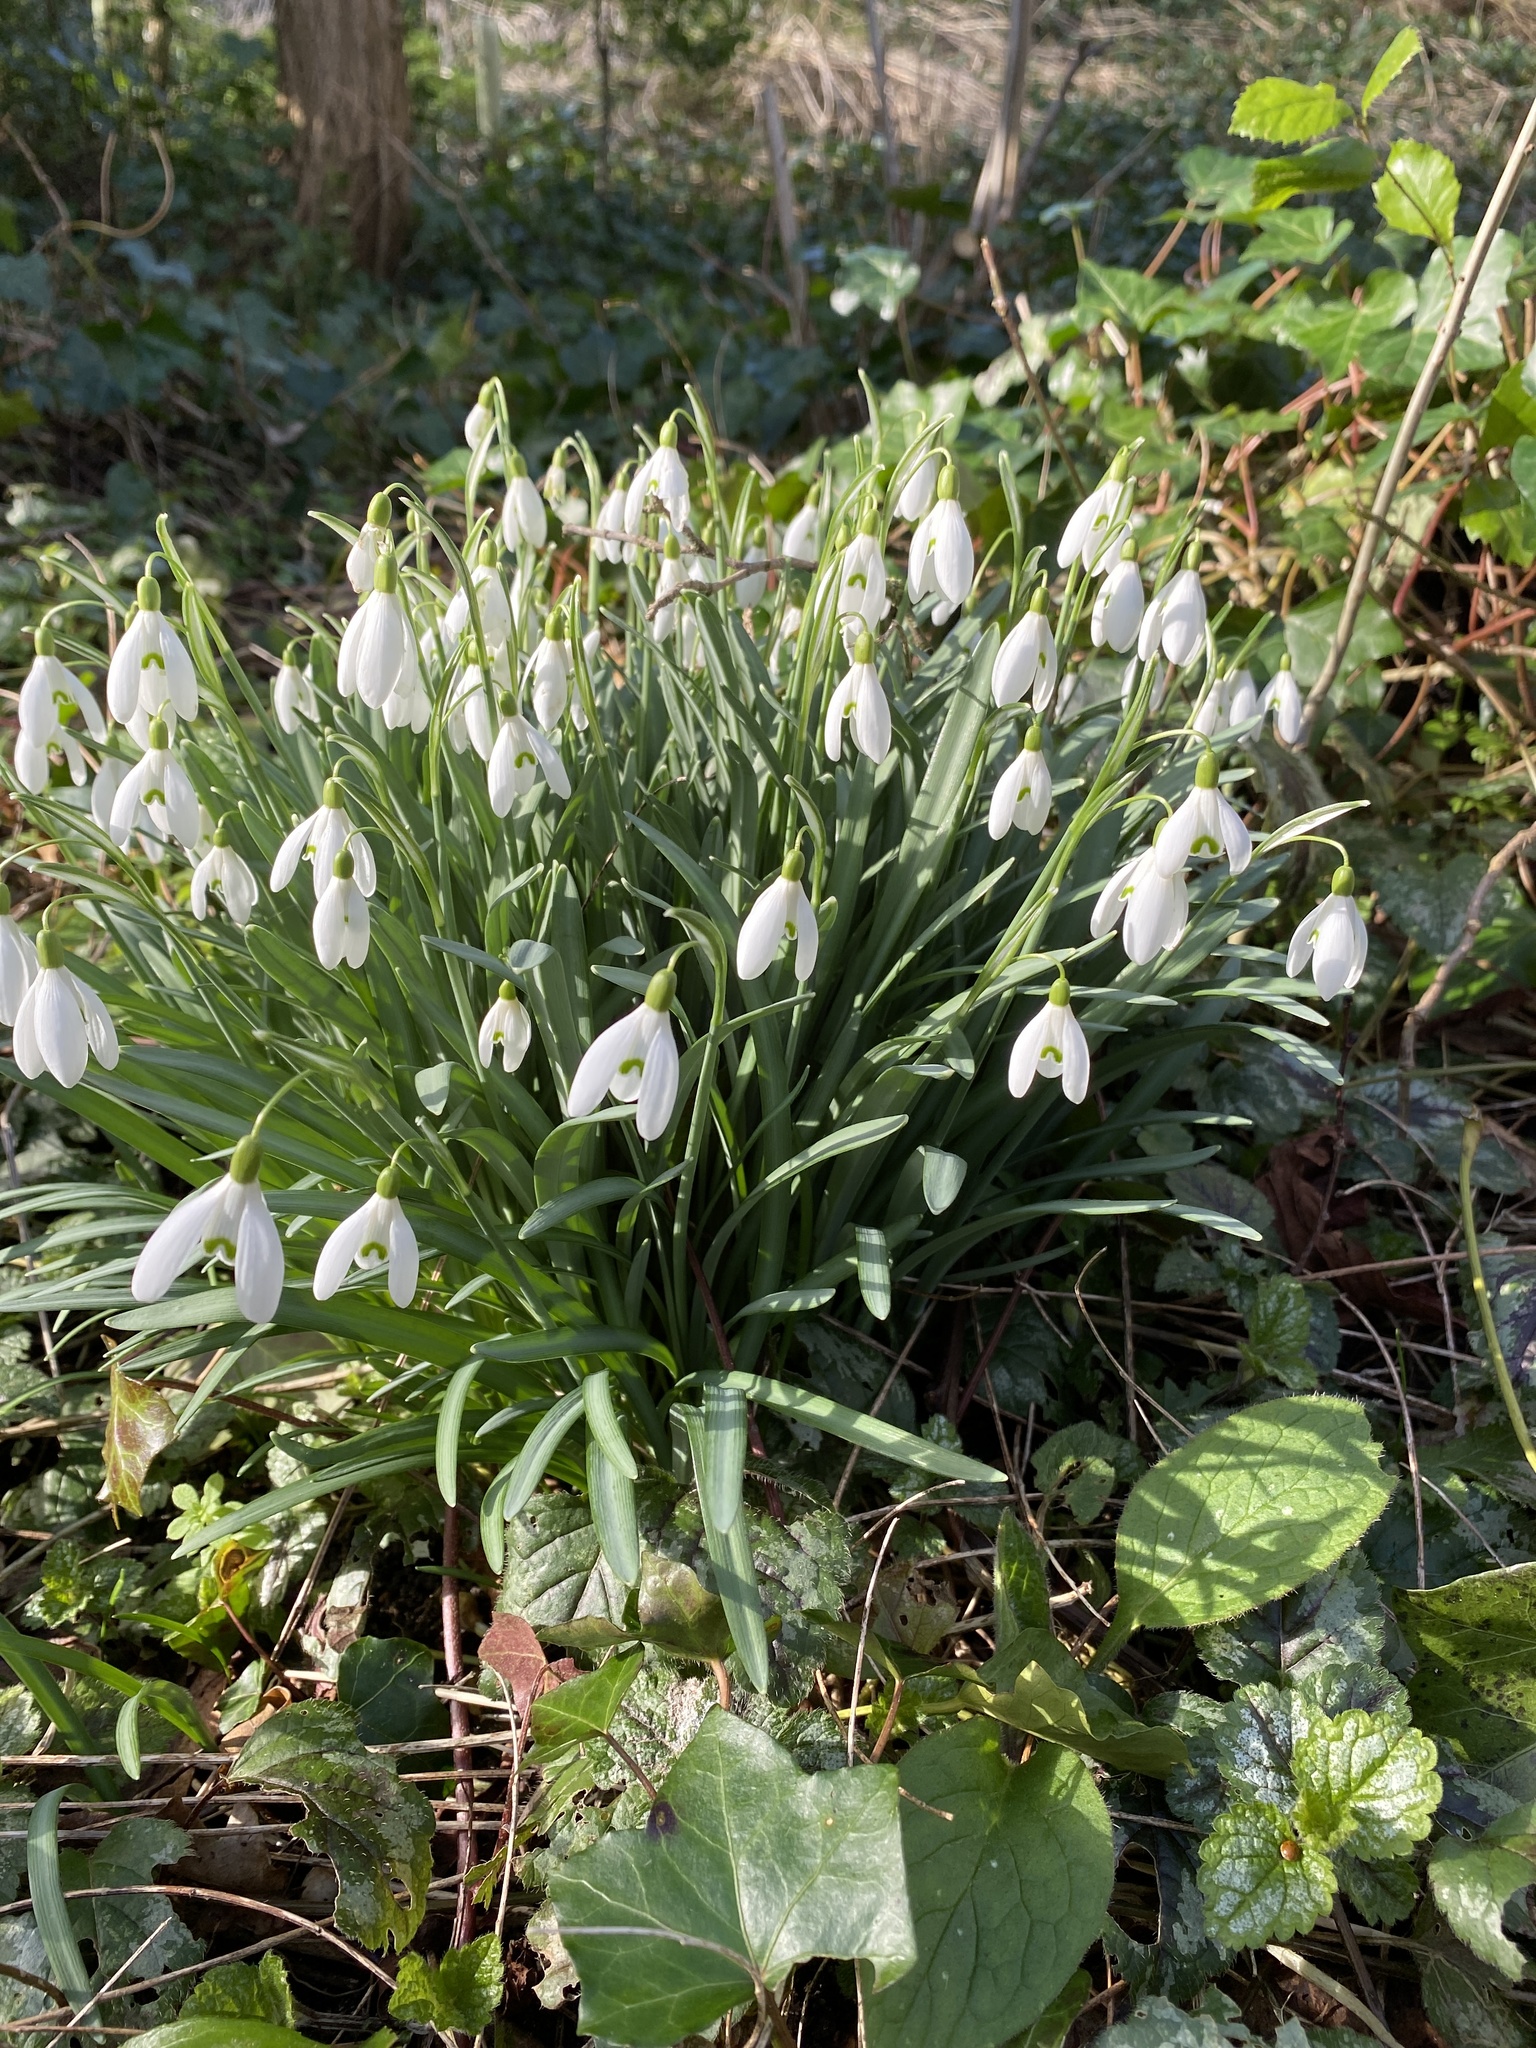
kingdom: Plantae
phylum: Tracheophyta
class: Liliopsida
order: Asparagales
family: Amaryllidaceae
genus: Galanthus
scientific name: Galanthus nivalis
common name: Snowdrop
